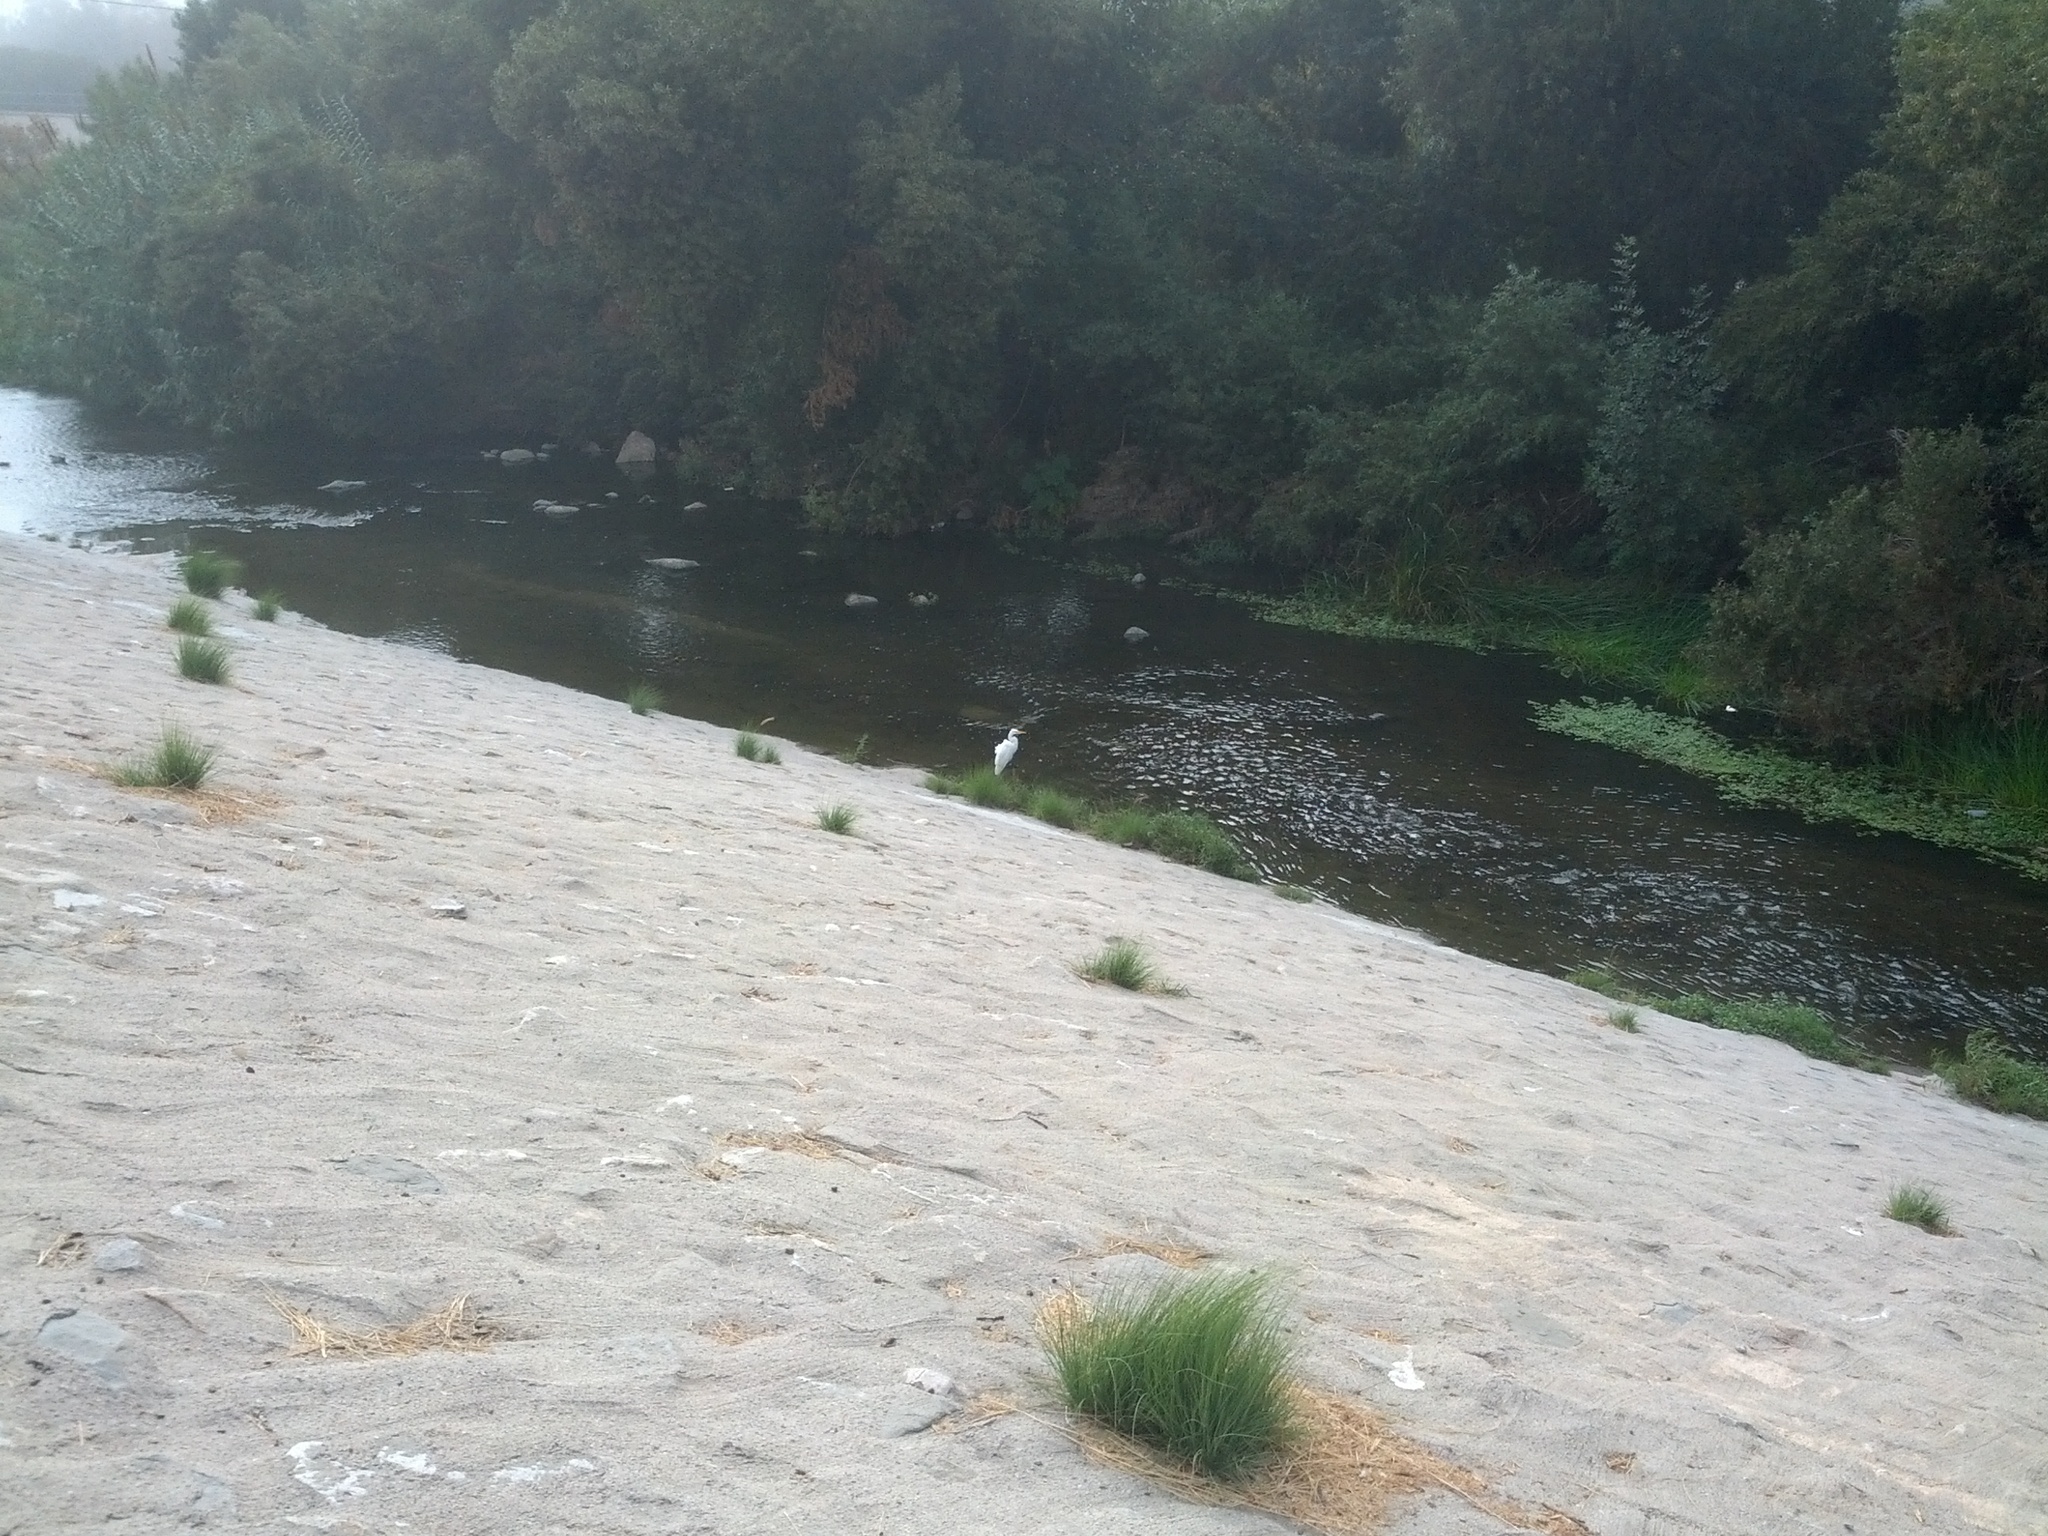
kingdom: Animalia
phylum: Chordata
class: Aves
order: Pelecaniformes
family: Ardeidae
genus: Ardea
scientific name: Ardea alba
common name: Great egret
